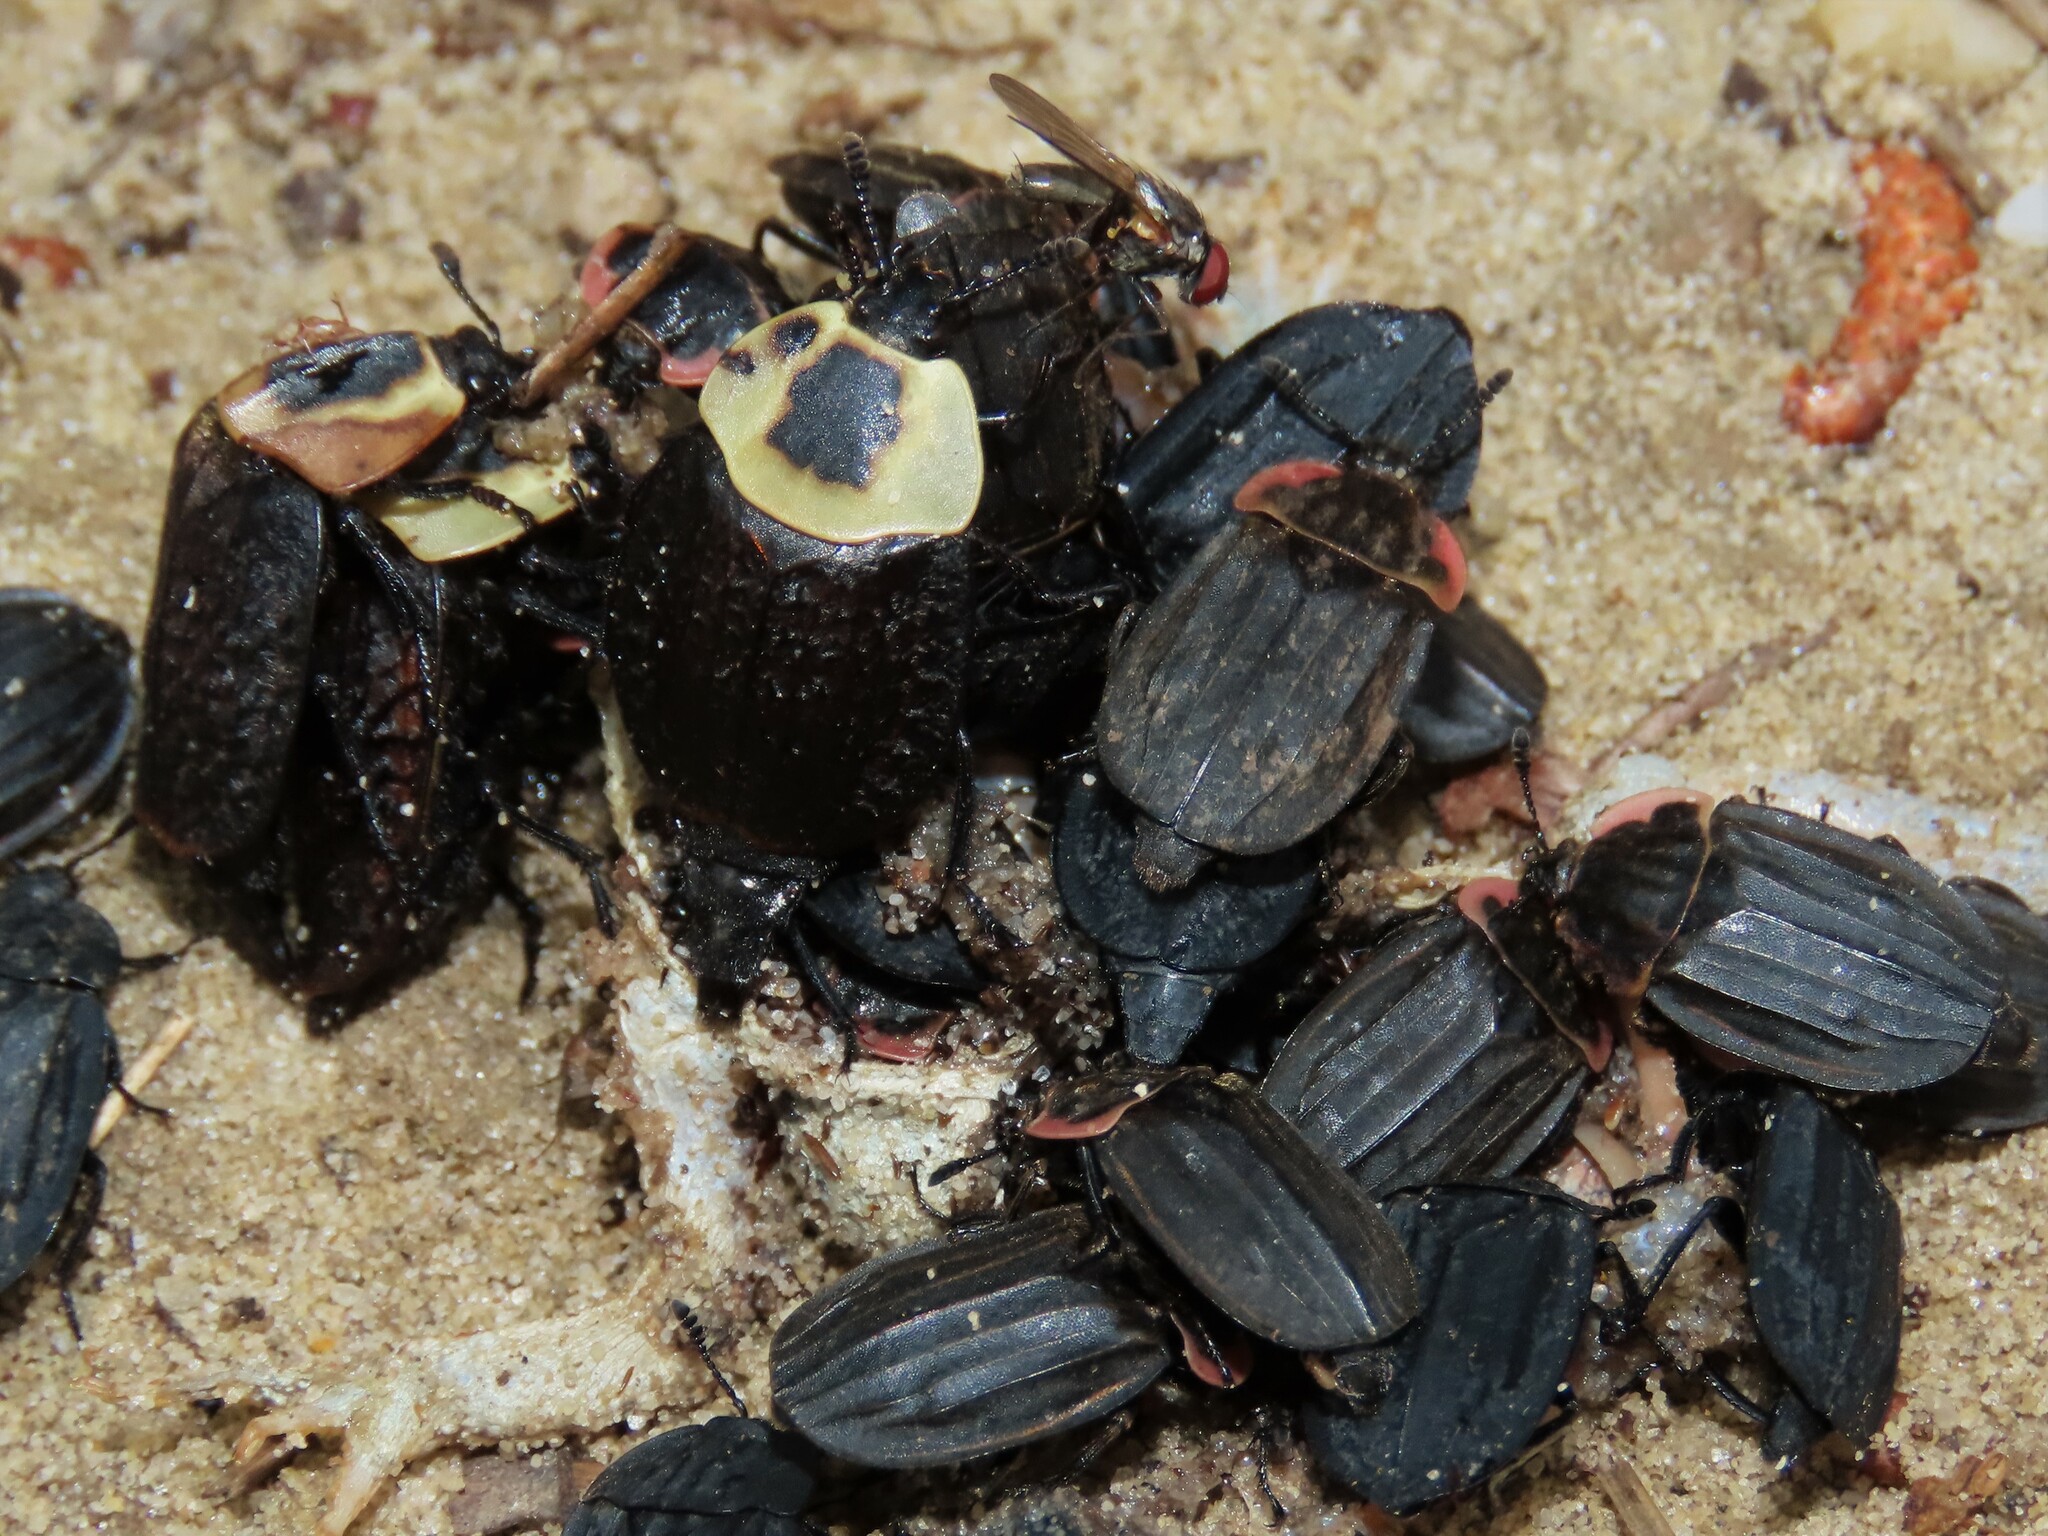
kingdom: Animalia
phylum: Arthropoda
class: Insecta
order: Coleoptera
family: Staphylinidae
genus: Necrophila
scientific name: Necrophila americana
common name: American carrion beetle
